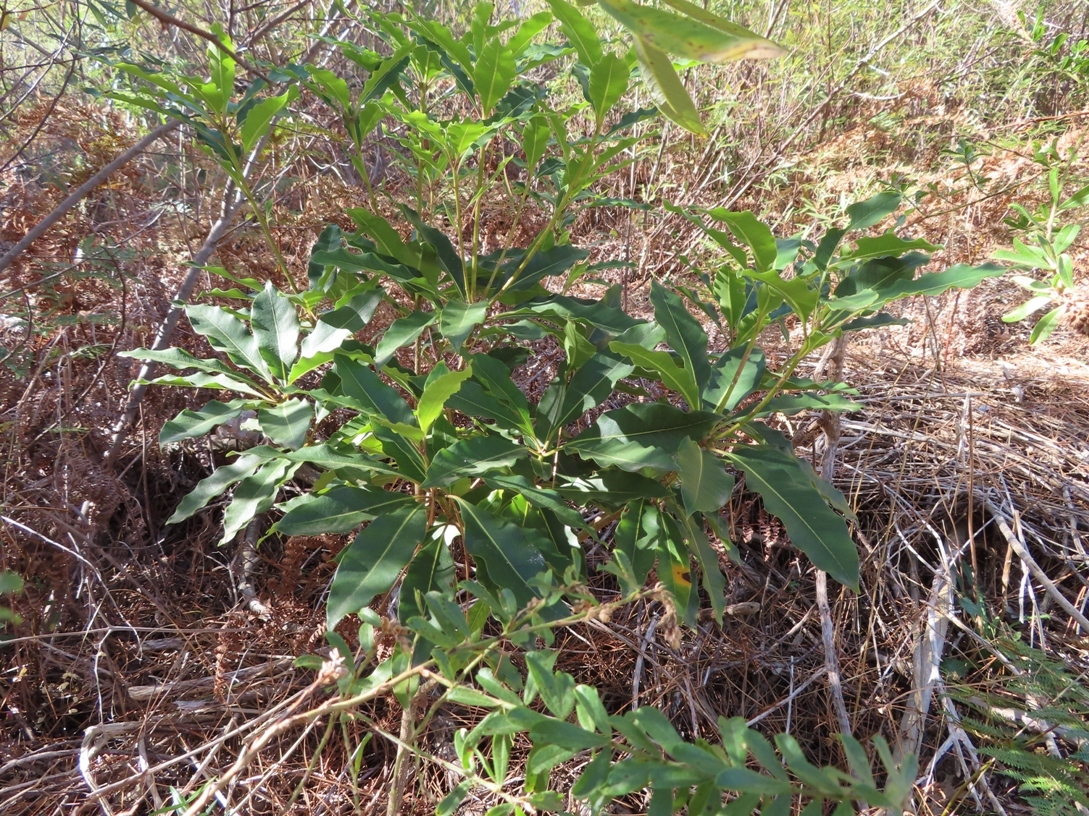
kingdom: Plantae
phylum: Tracheophyta
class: Magnoliopsida
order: Apiales
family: Pittosporaceae
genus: Pittosporum
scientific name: Pittosporum undulatum
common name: Australian cheesewood
